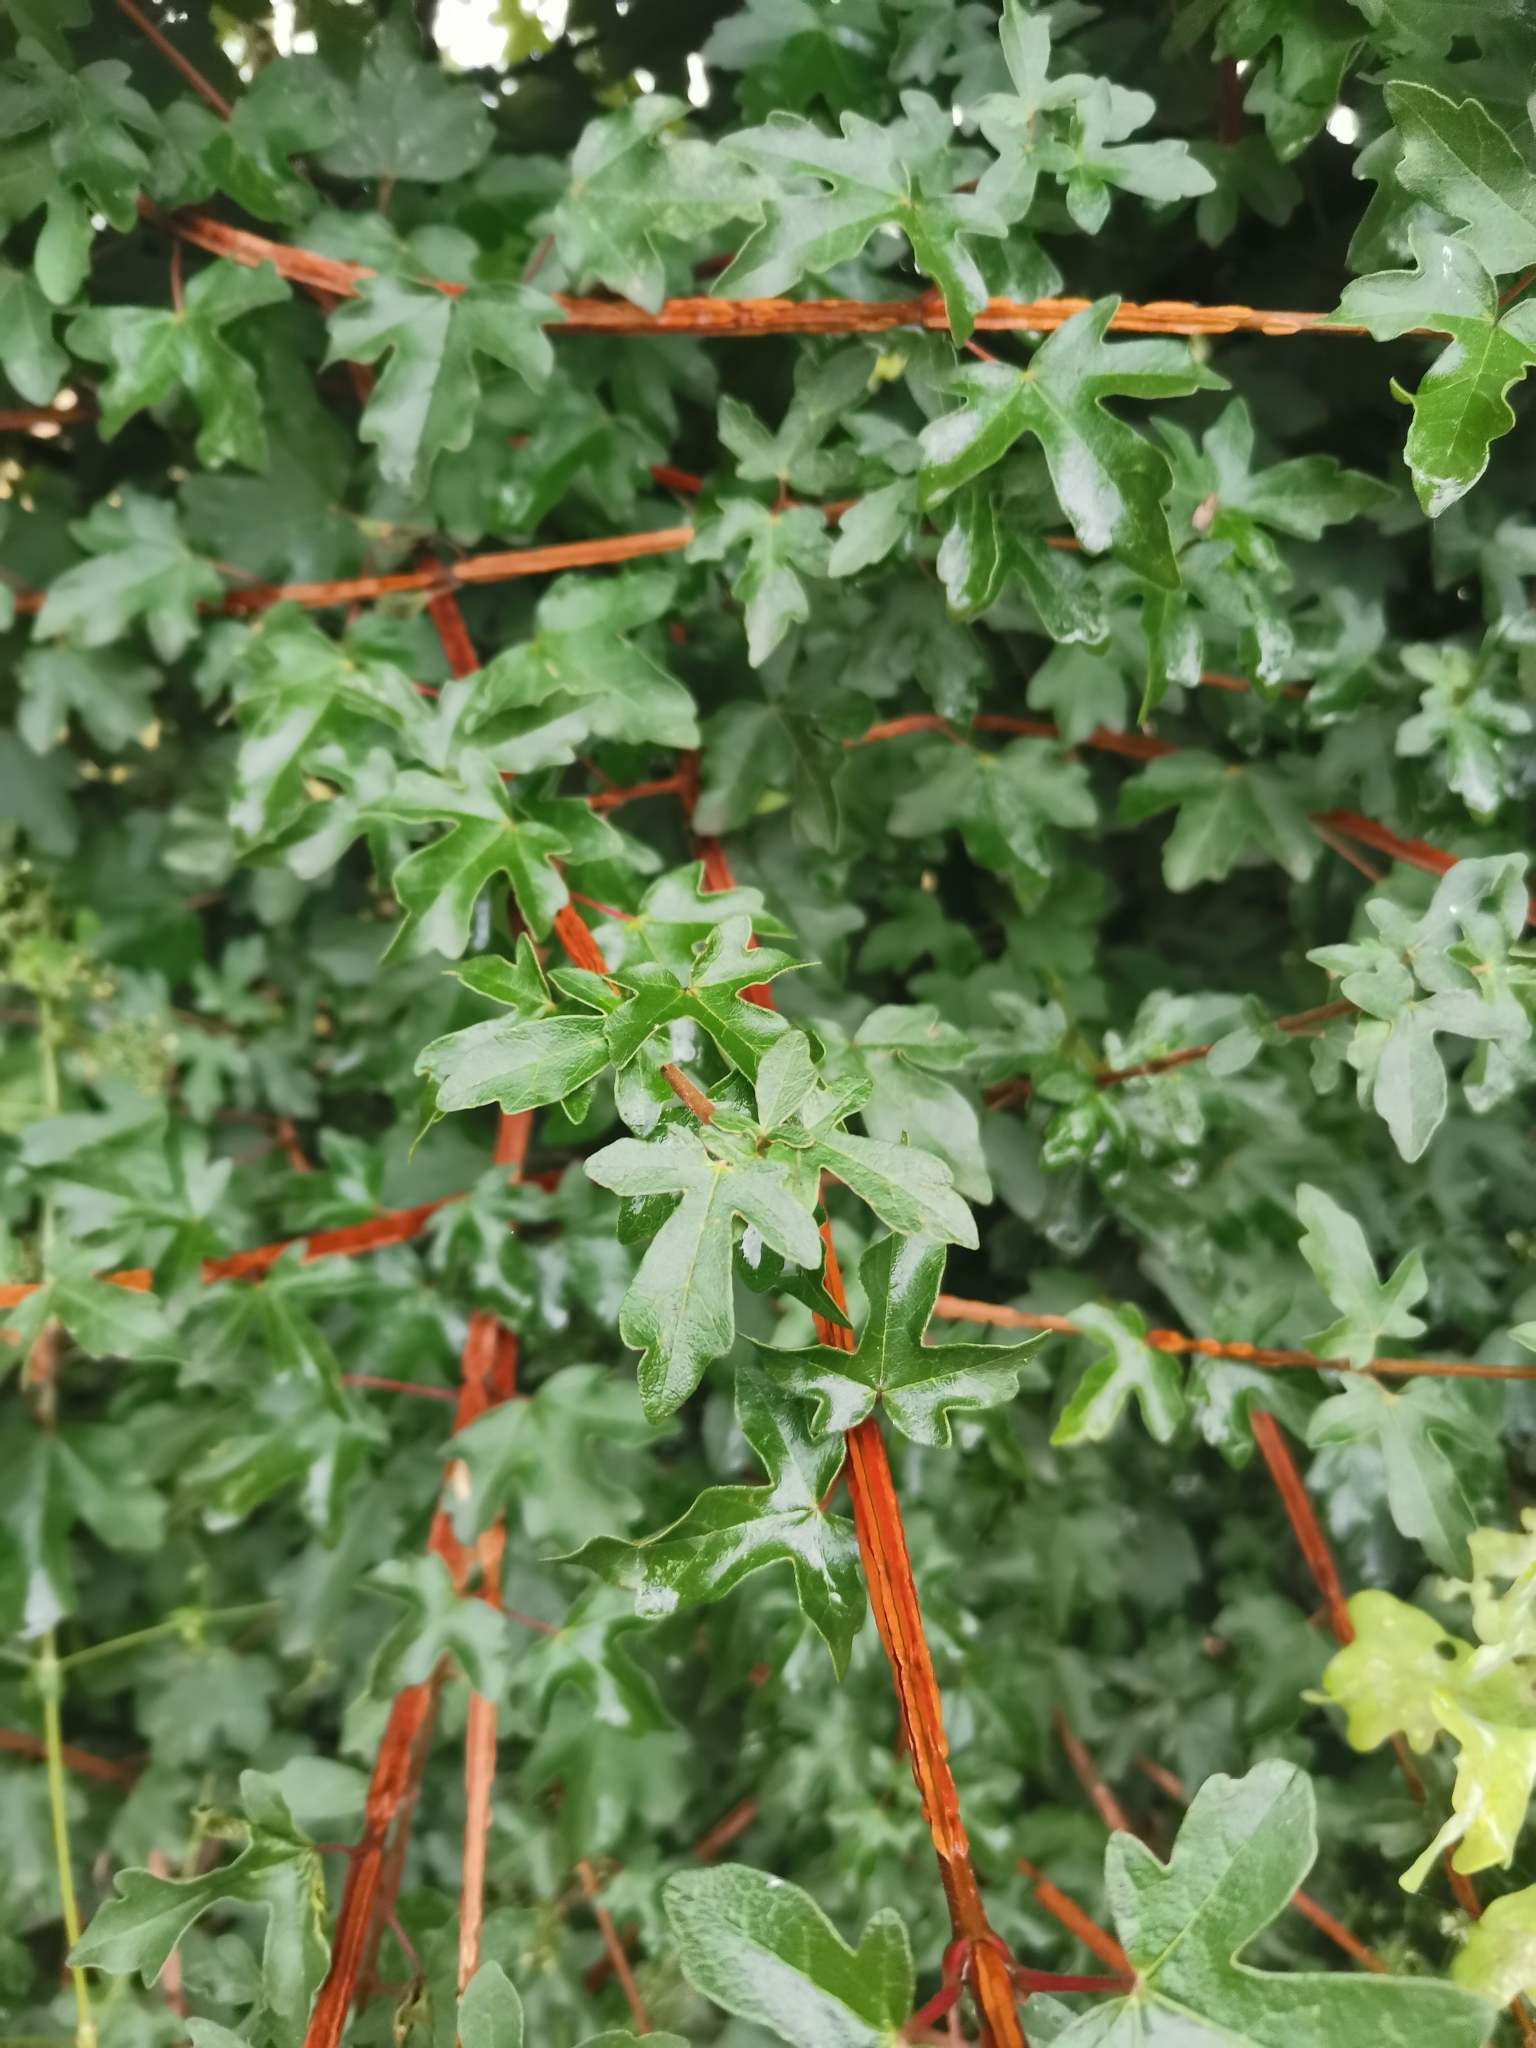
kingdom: Plantae
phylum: Tracheophyta
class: Magnoliopsida
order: Sapindales
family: Sapindaceae
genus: Acer
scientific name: Acer campestre
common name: Field maple
